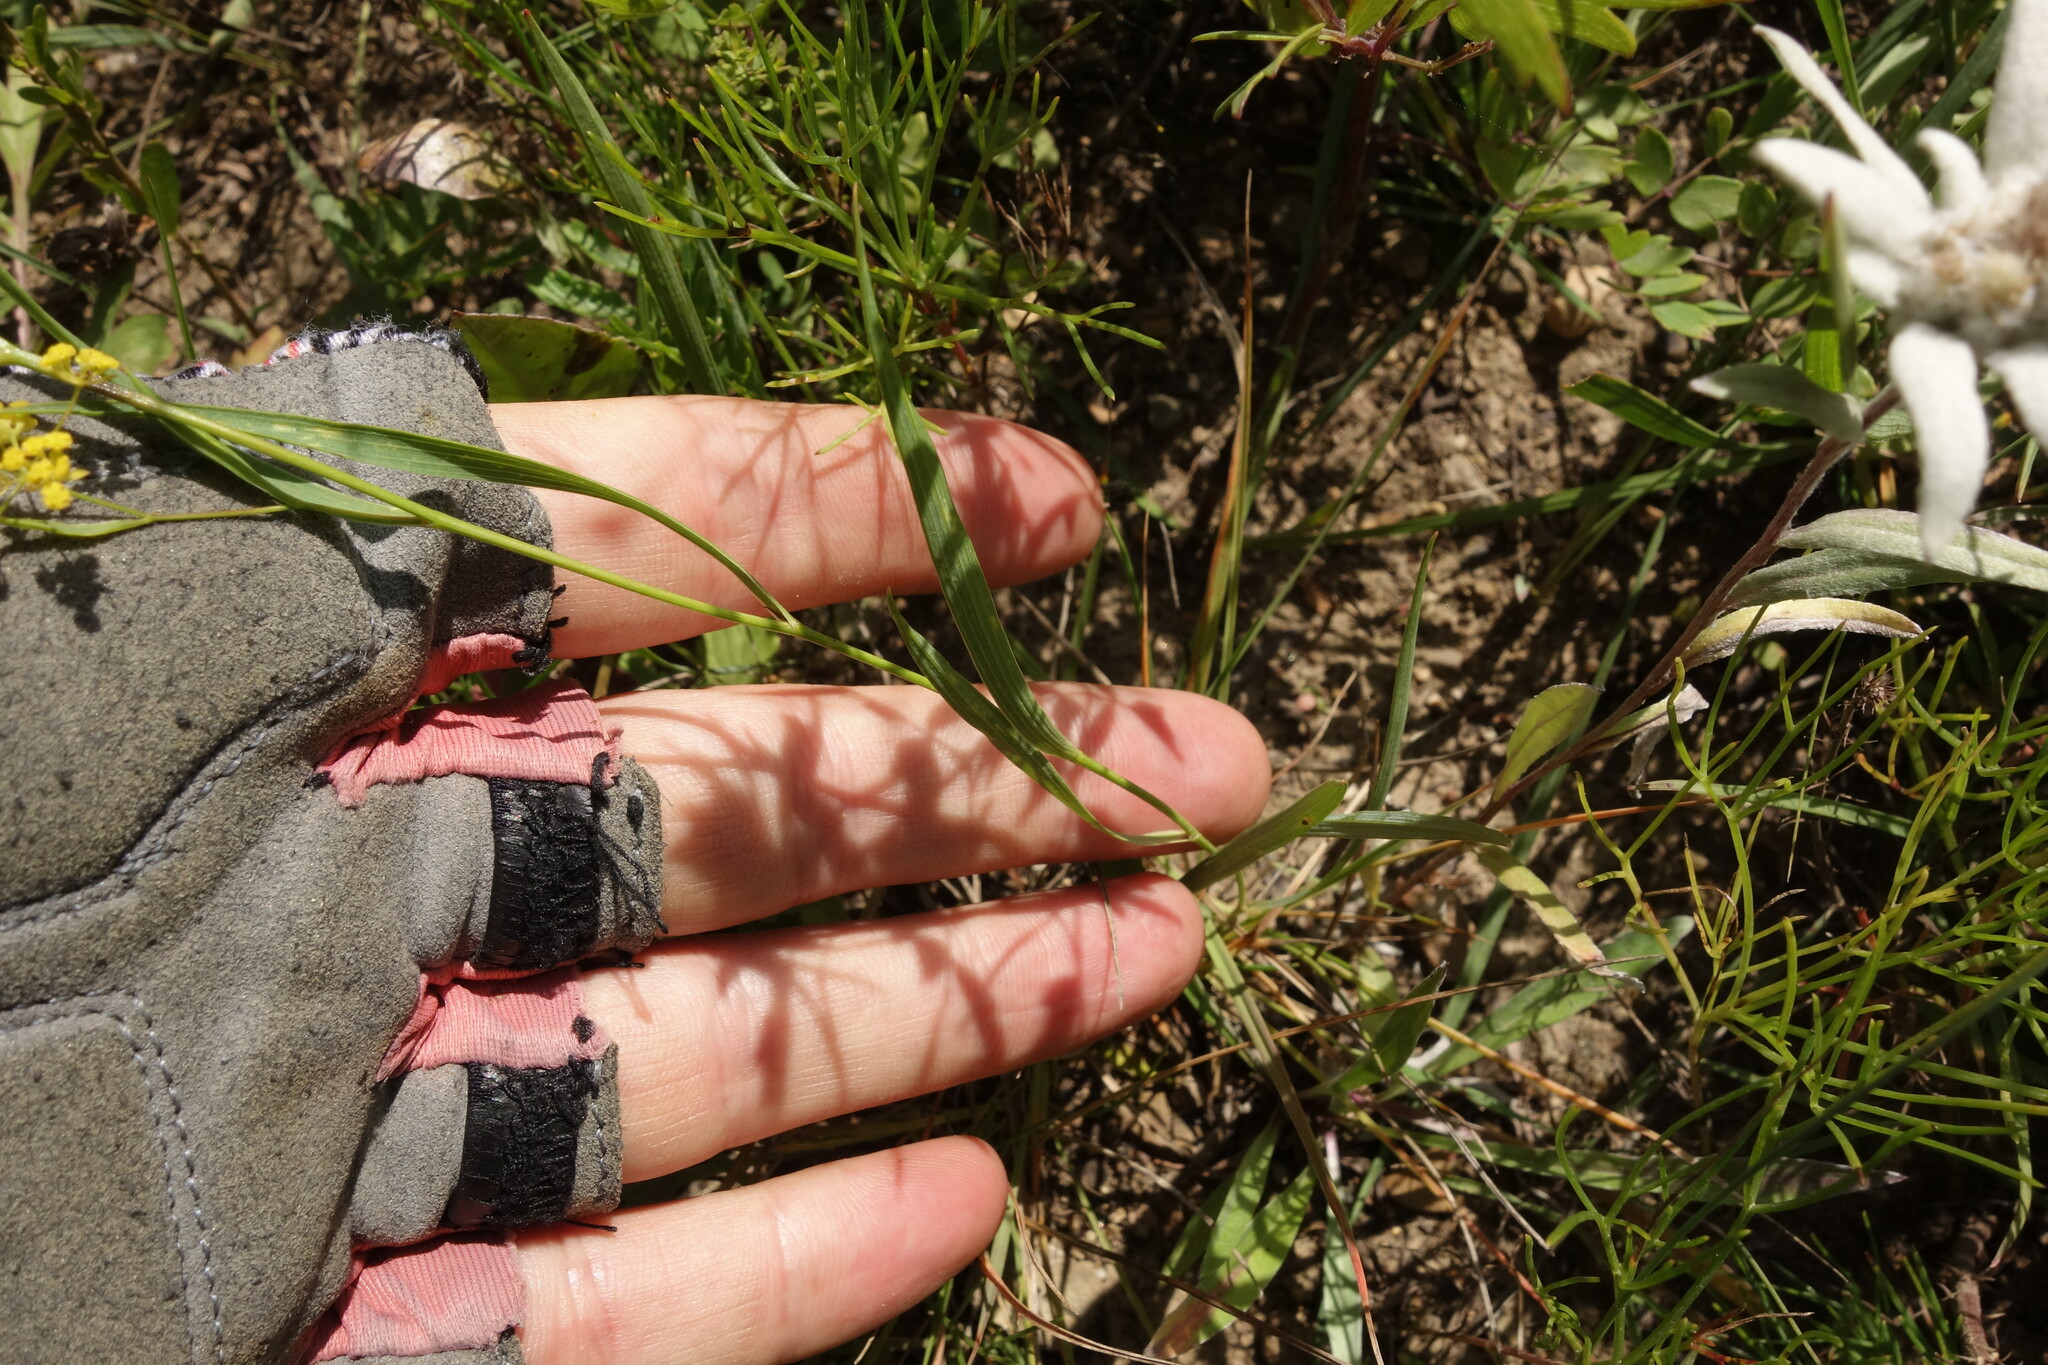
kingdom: Plantae
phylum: Tracheophyta
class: Magnoliopsida
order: Apiales
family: Apiaceae
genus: Bupleurum
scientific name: Bupleurum scorzonerifolium
